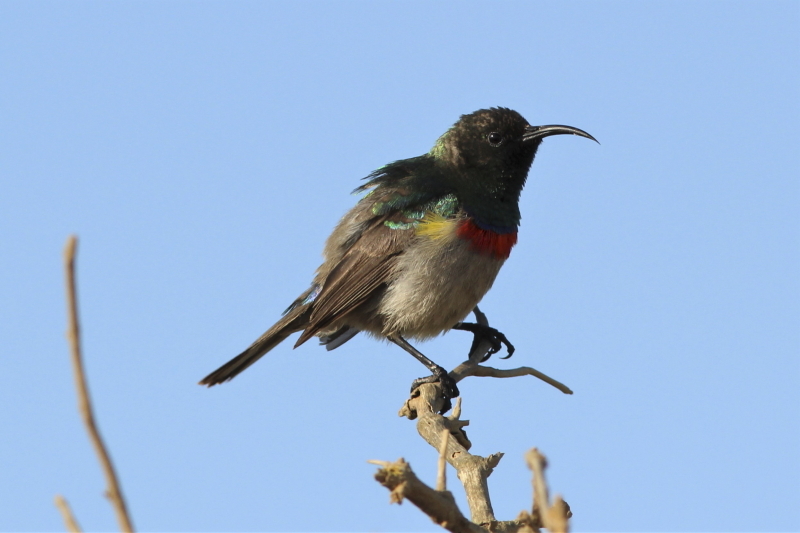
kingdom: Animalia
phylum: Chordata
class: Aves
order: Passeriformes
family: Nectariniidae
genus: Cinnyris
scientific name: Cinnyris chalybeus
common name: Southern double-collared sunbird
